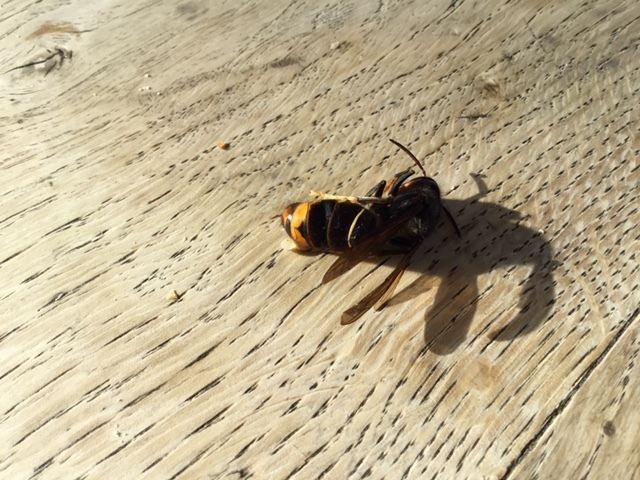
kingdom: Animalia
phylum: Arthropoda
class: Insecta
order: Hymenoptera
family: Vespidae
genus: Vespa
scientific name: Vespa velutina
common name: Asian hornet
